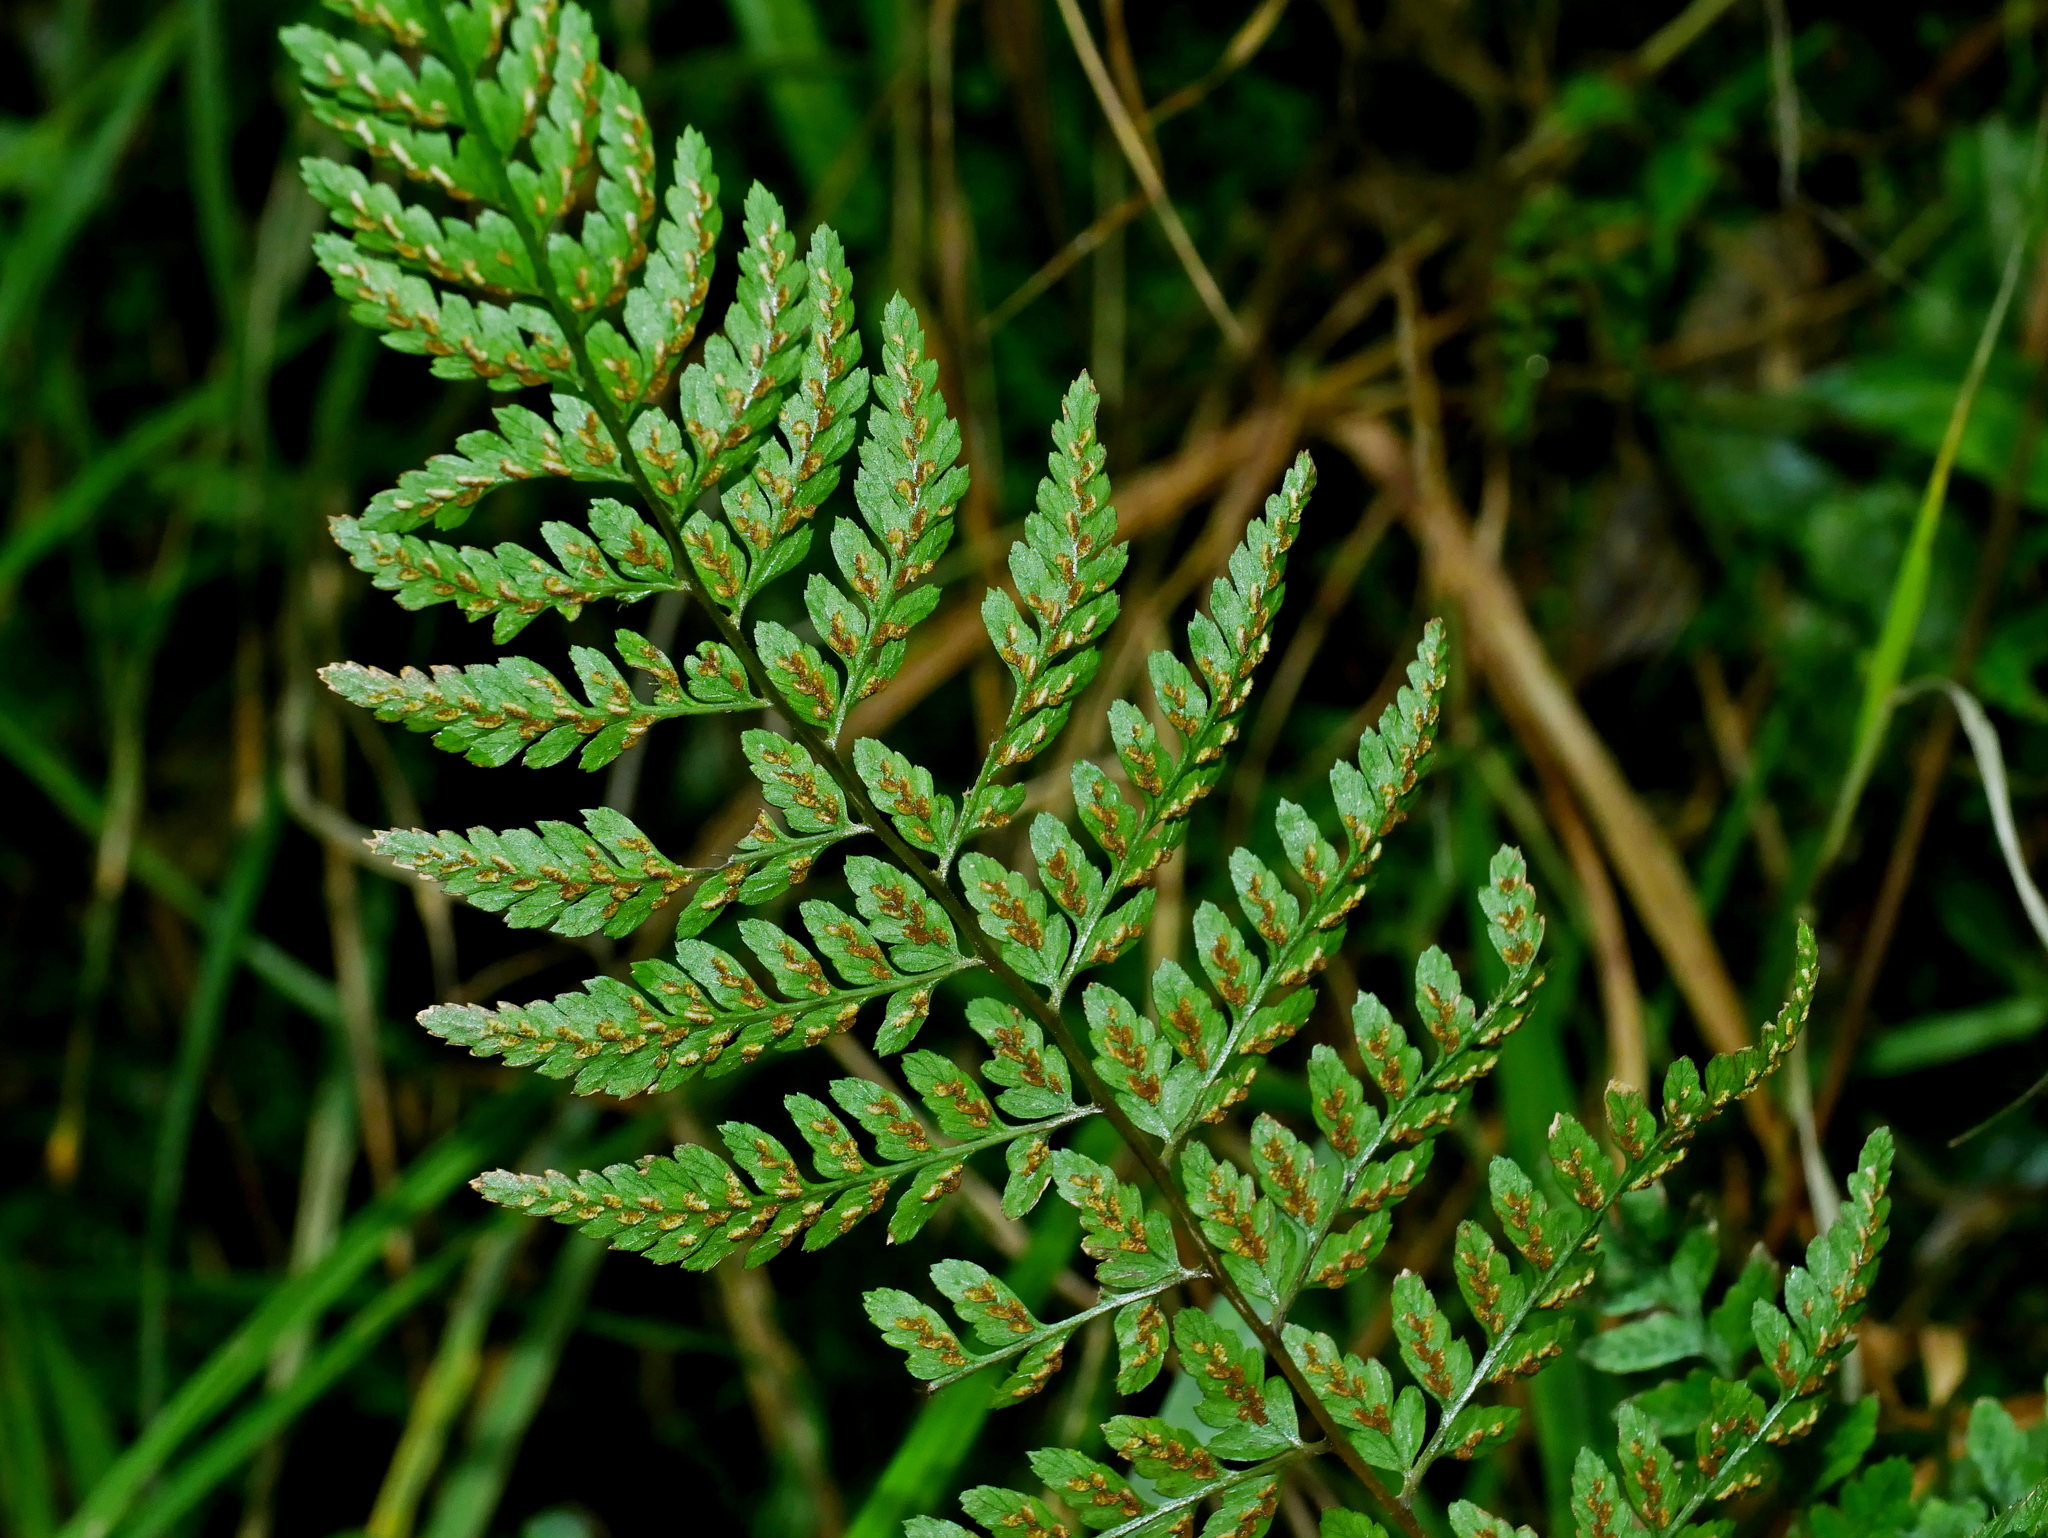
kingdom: Plantae
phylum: Tracheophyta
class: Polypodiopsida
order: Polypodiales
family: Athyriaceae
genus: Athyrium
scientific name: Athyrium nigripes
